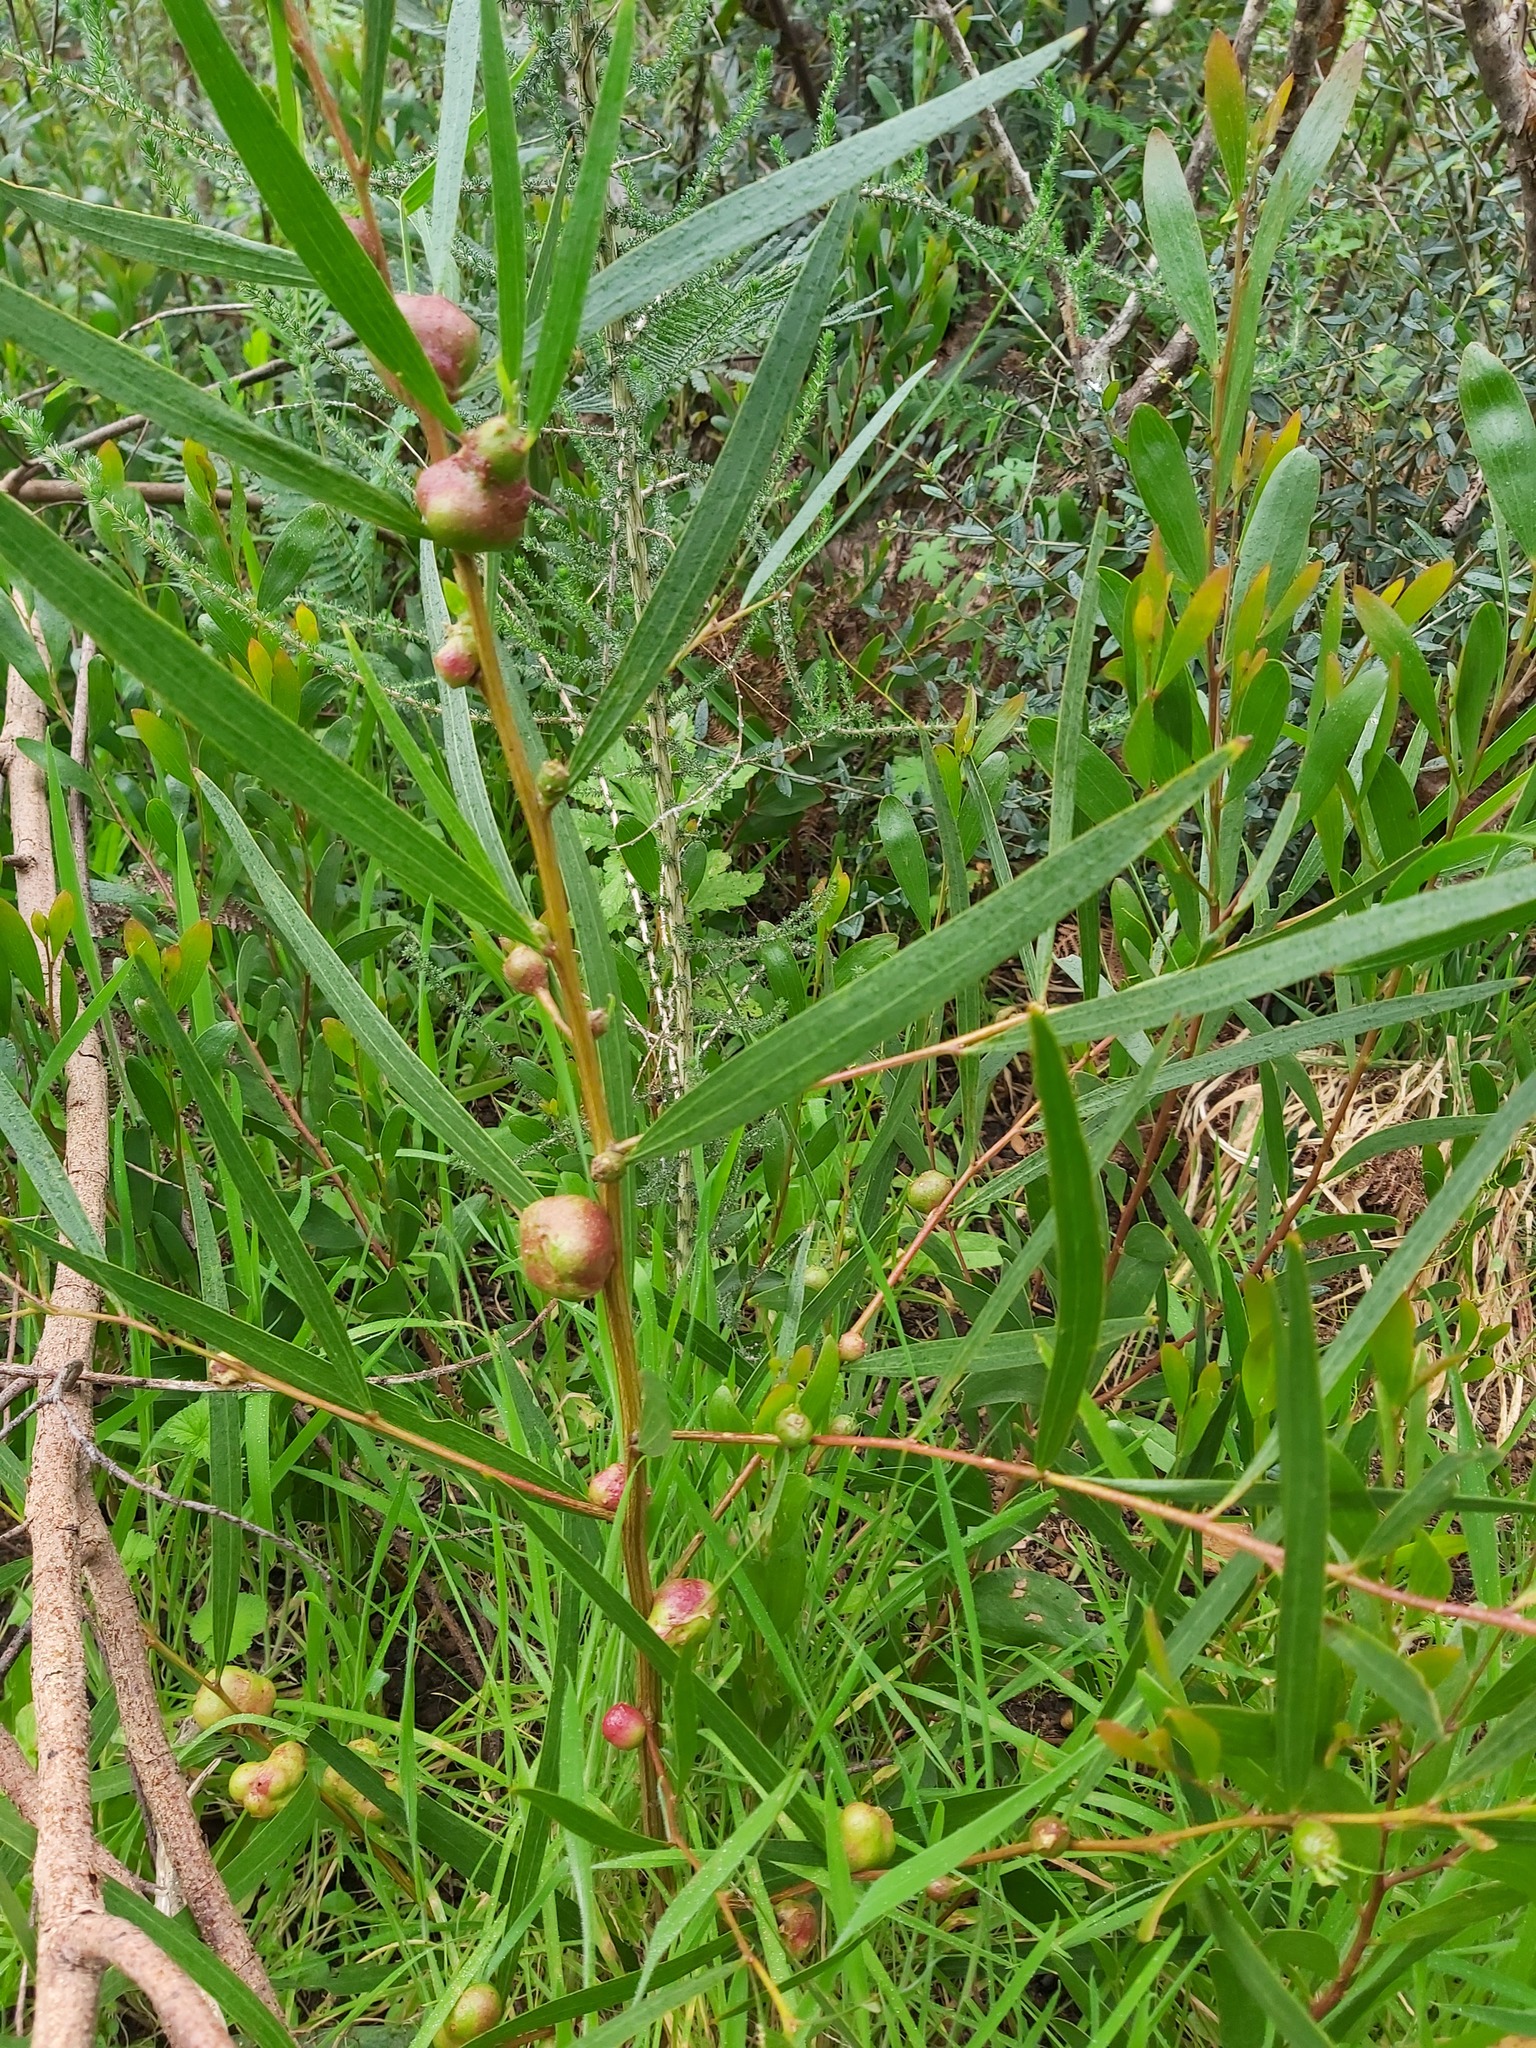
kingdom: Animalia
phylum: Arthropoda
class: Insecta
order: Hymenoptera
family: Pteromalidae
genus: Trichilogaster
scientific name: Trichilogaster acaciaelongifoliae
